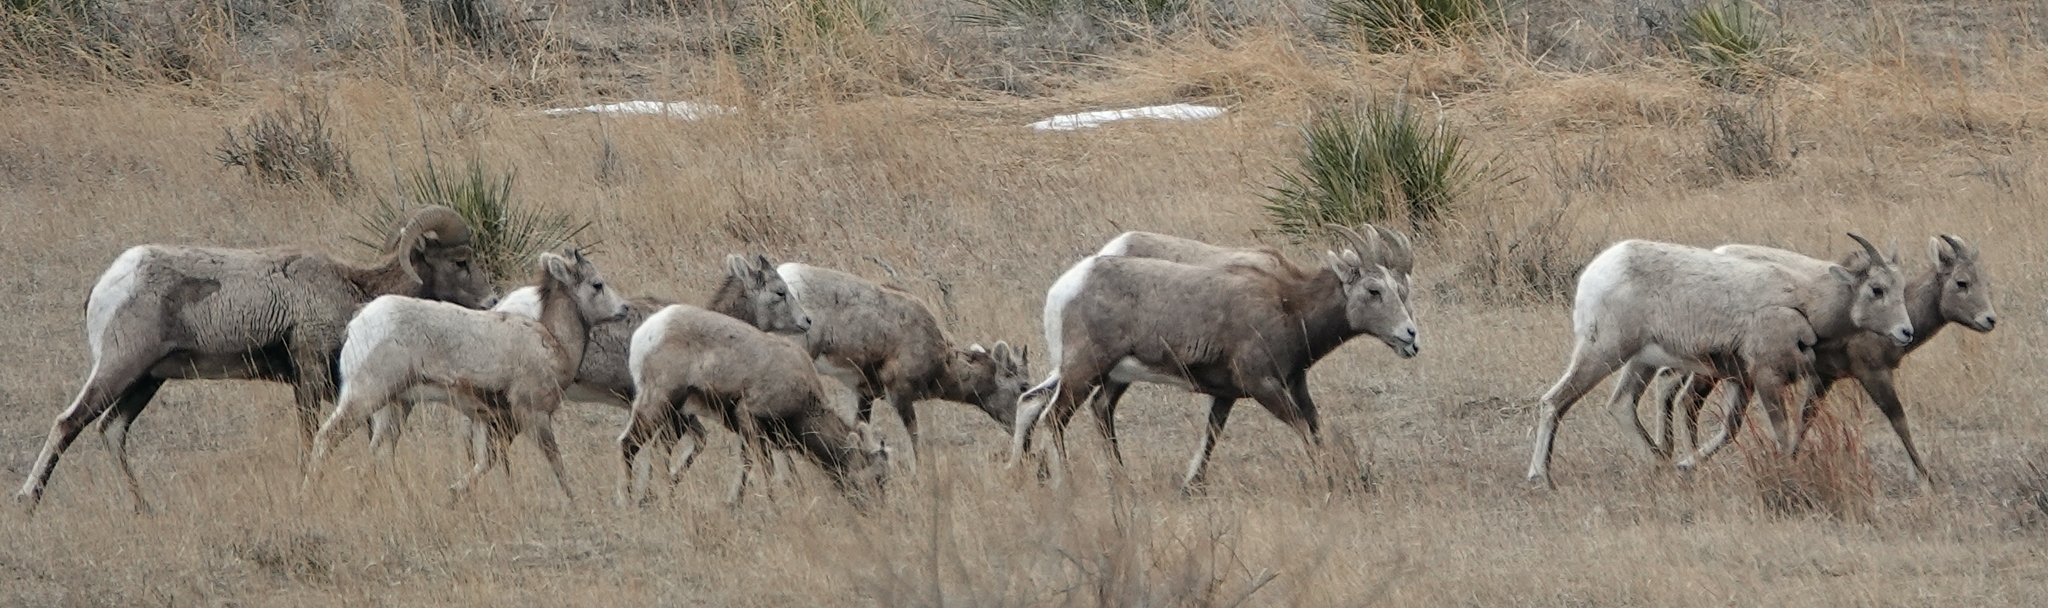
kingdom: Animalia
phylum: Chordata
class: Mammalia
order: Artiodactyla
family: Bovidae
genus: Ovis
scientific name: Ovis canadensis
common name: Bighorn sheep
